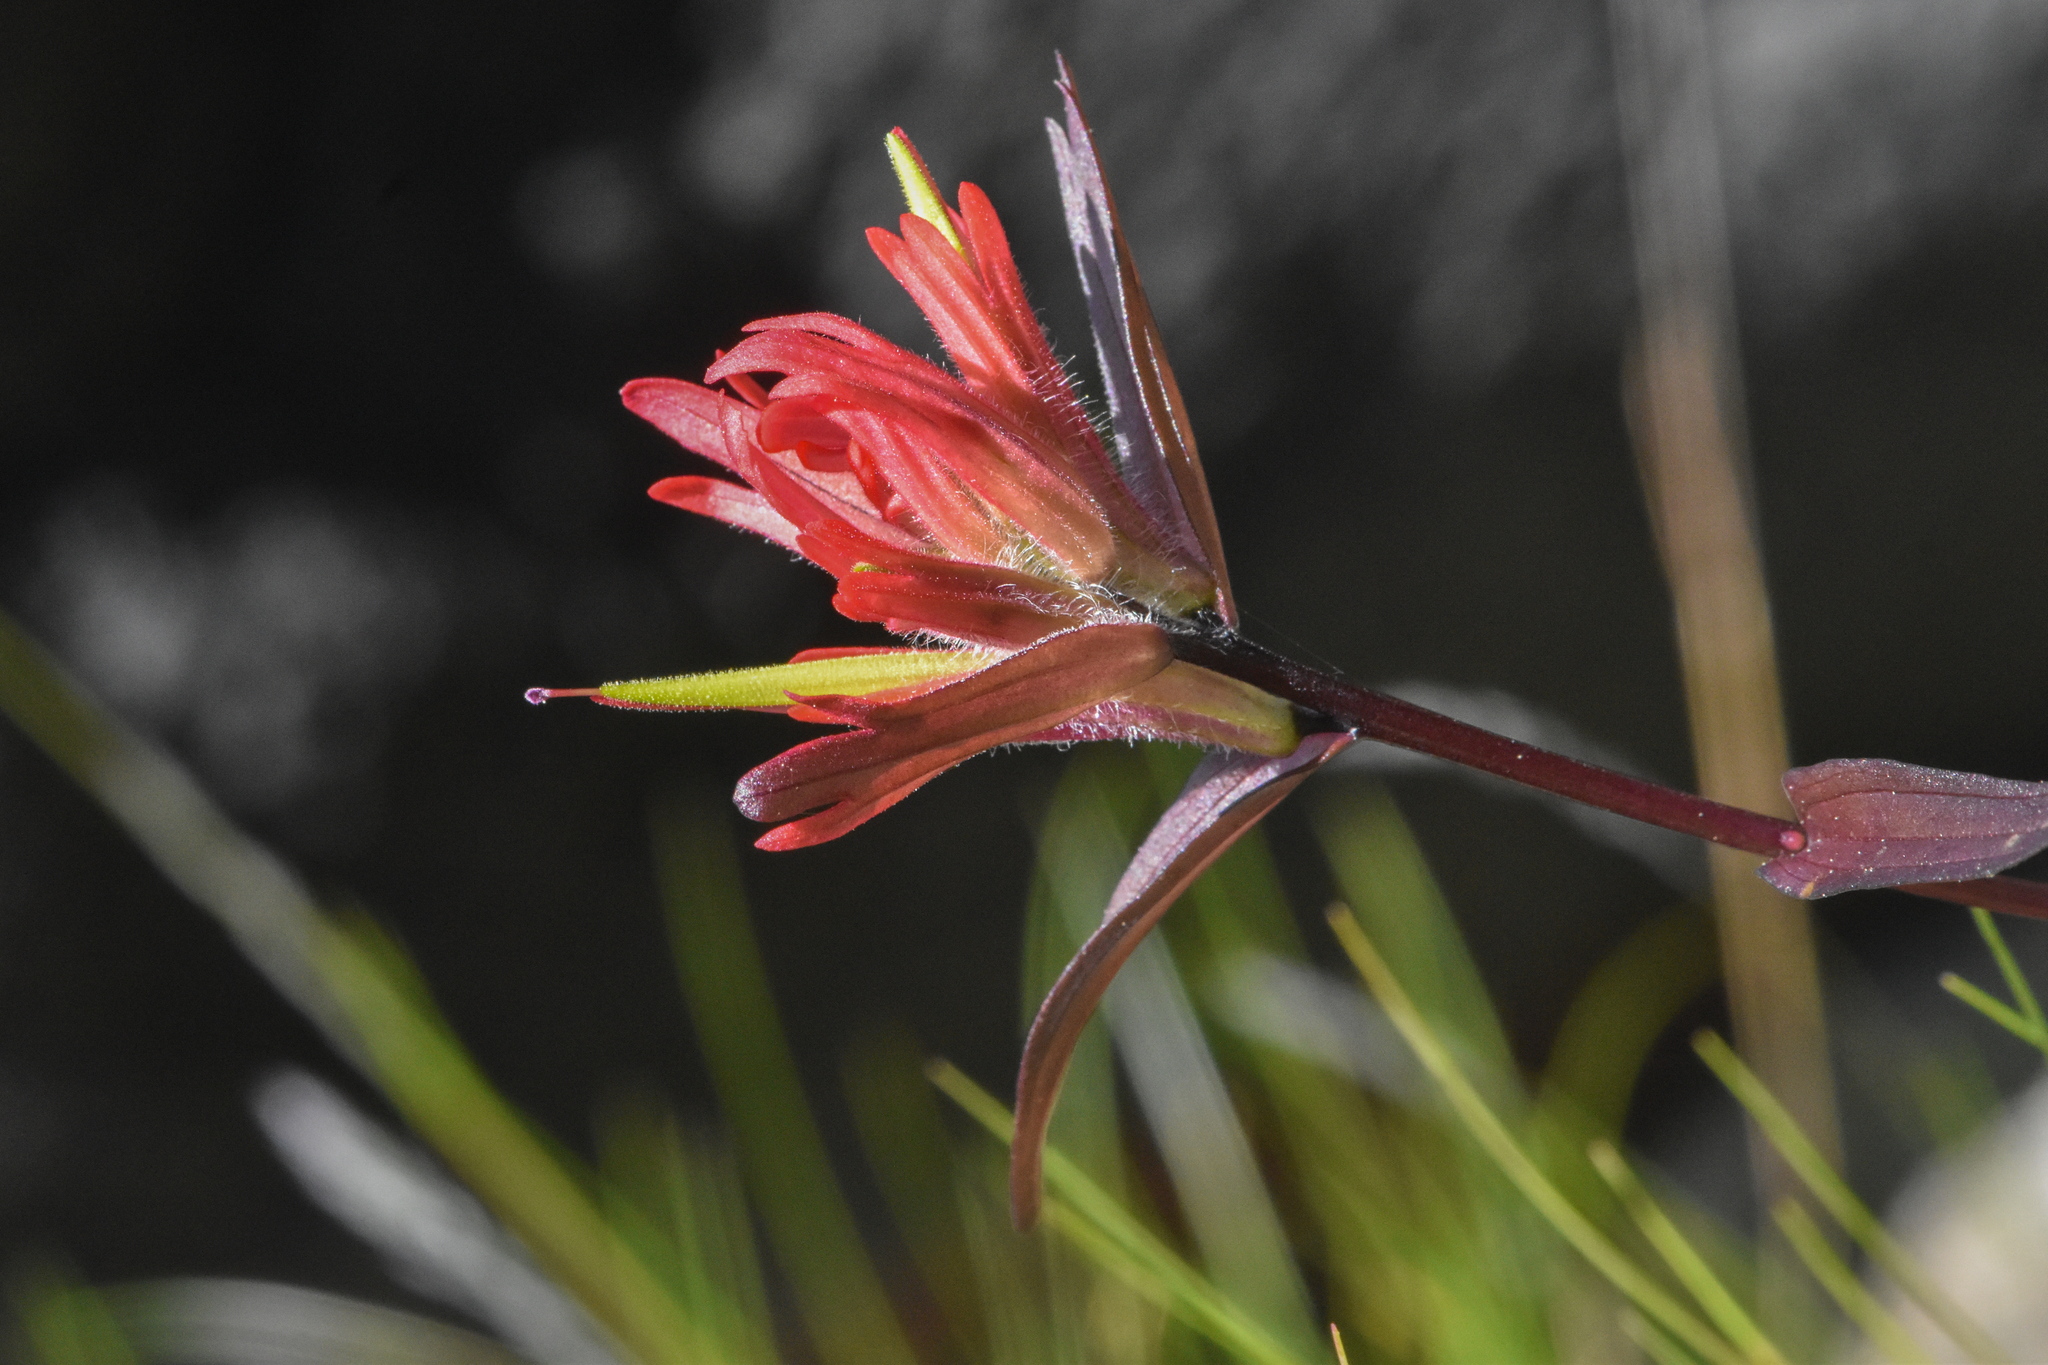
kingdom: Plantae
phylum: Tracheophyta
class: Magnoliopsida
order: Lamiales
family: Orobanchaceae
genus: Castilleja
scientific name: Castilleja miniata
